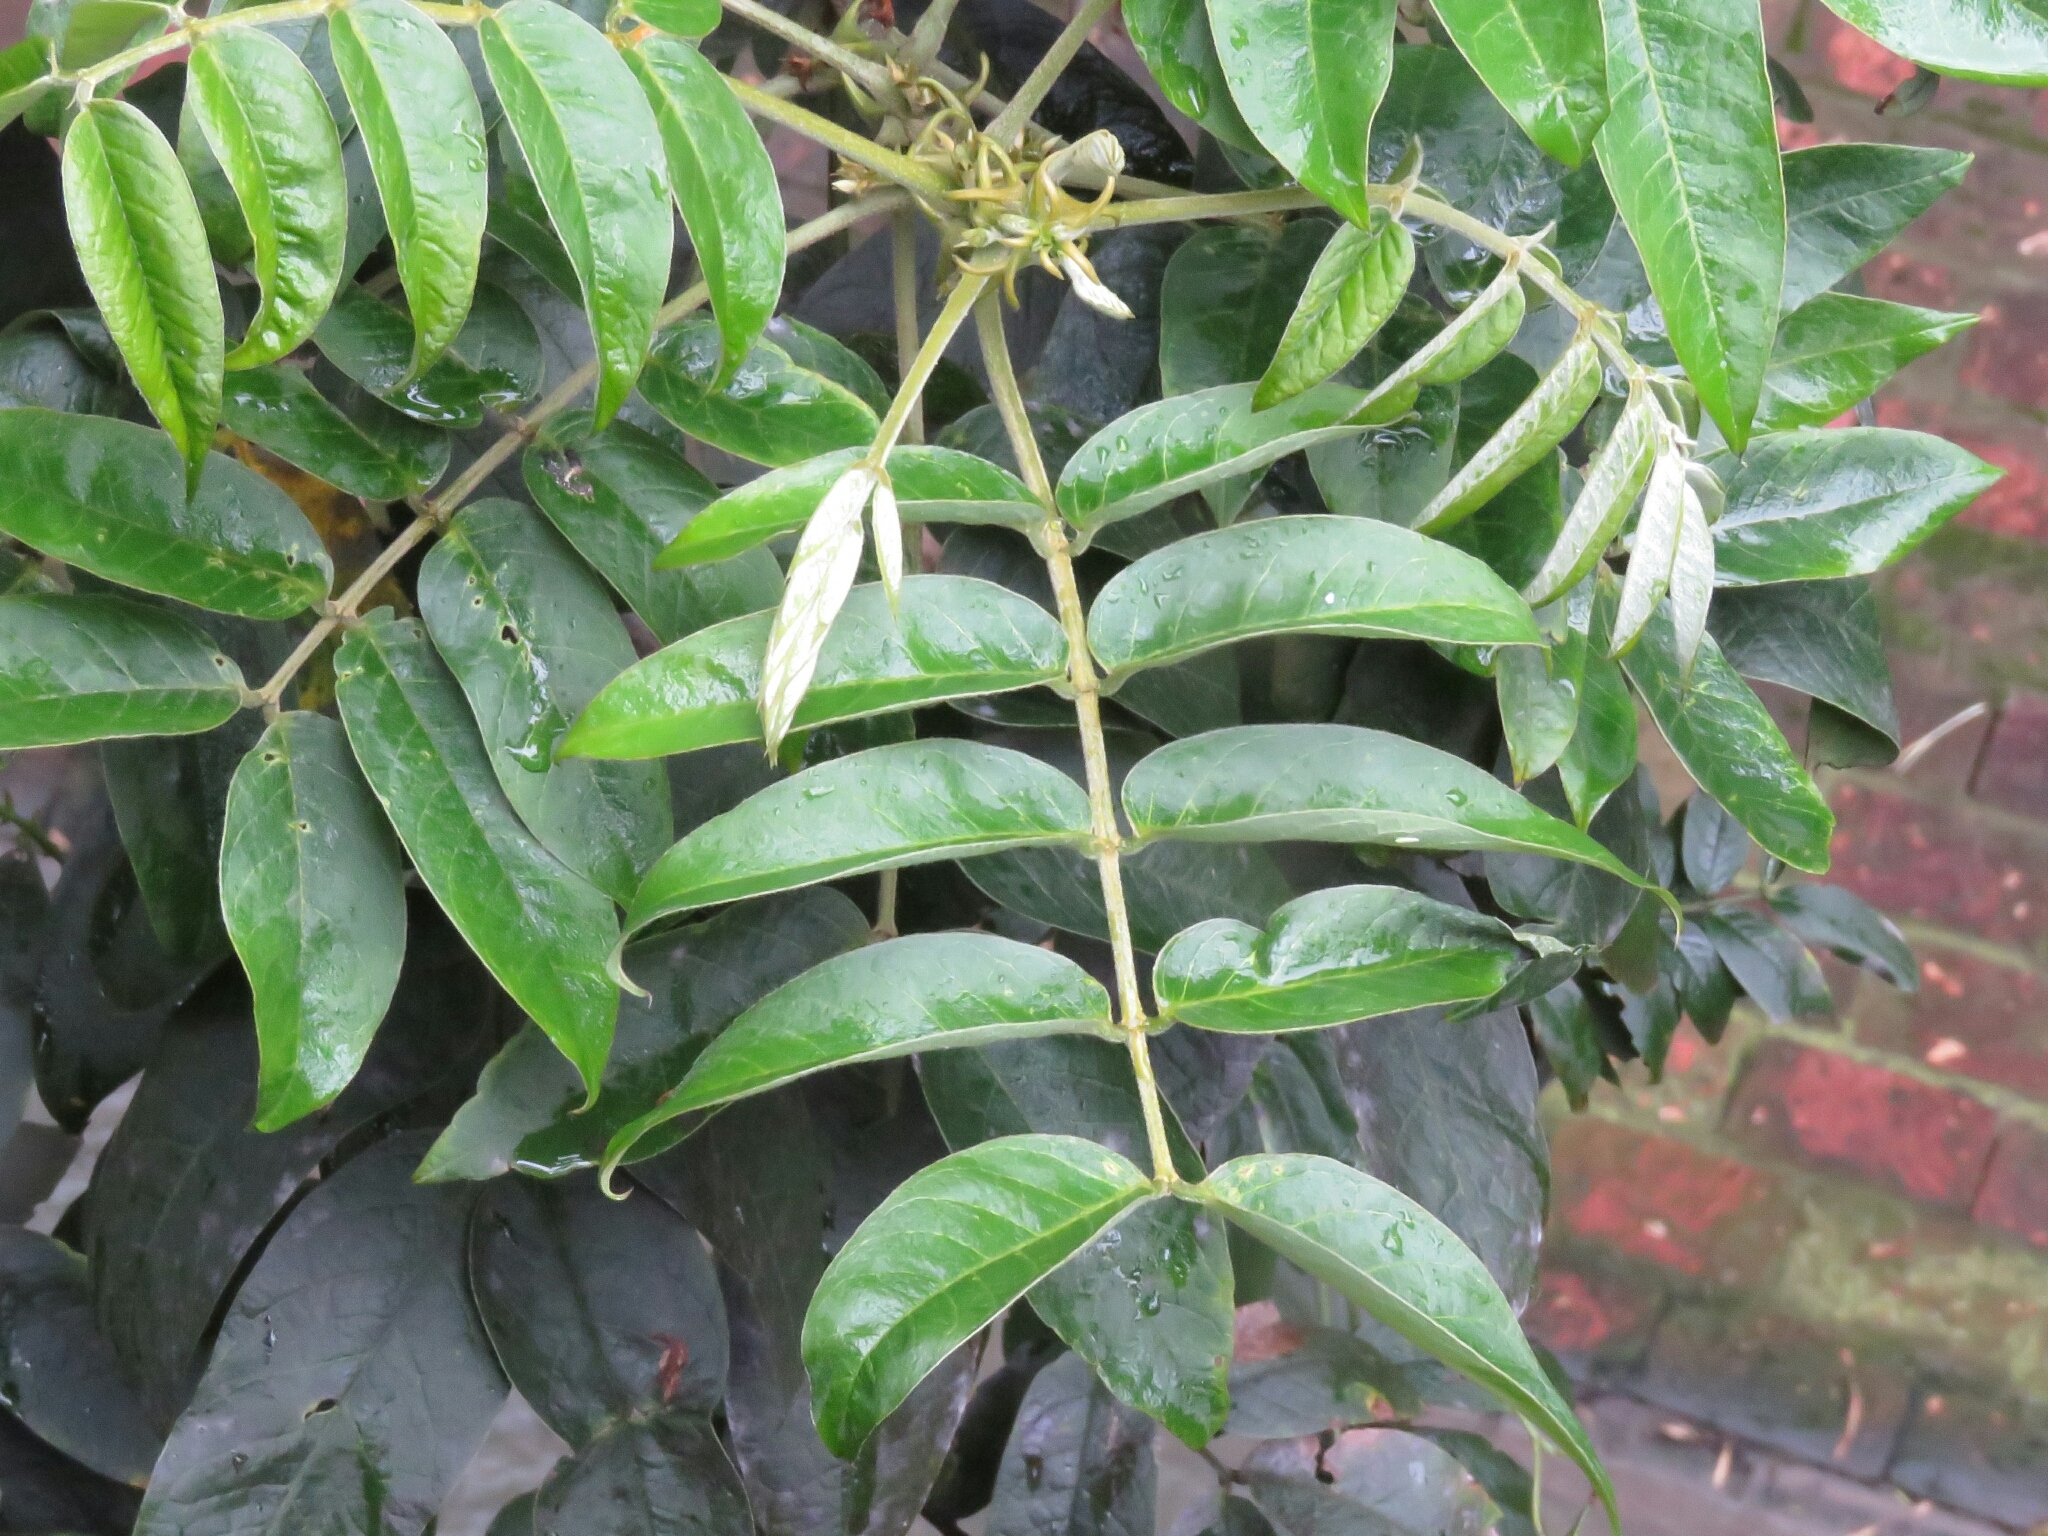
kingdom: Plantae
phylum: Tracheophyta
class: Magnoliopsida
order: Fabales
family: Fabaceae
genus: Senna
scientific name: Senna viarum
